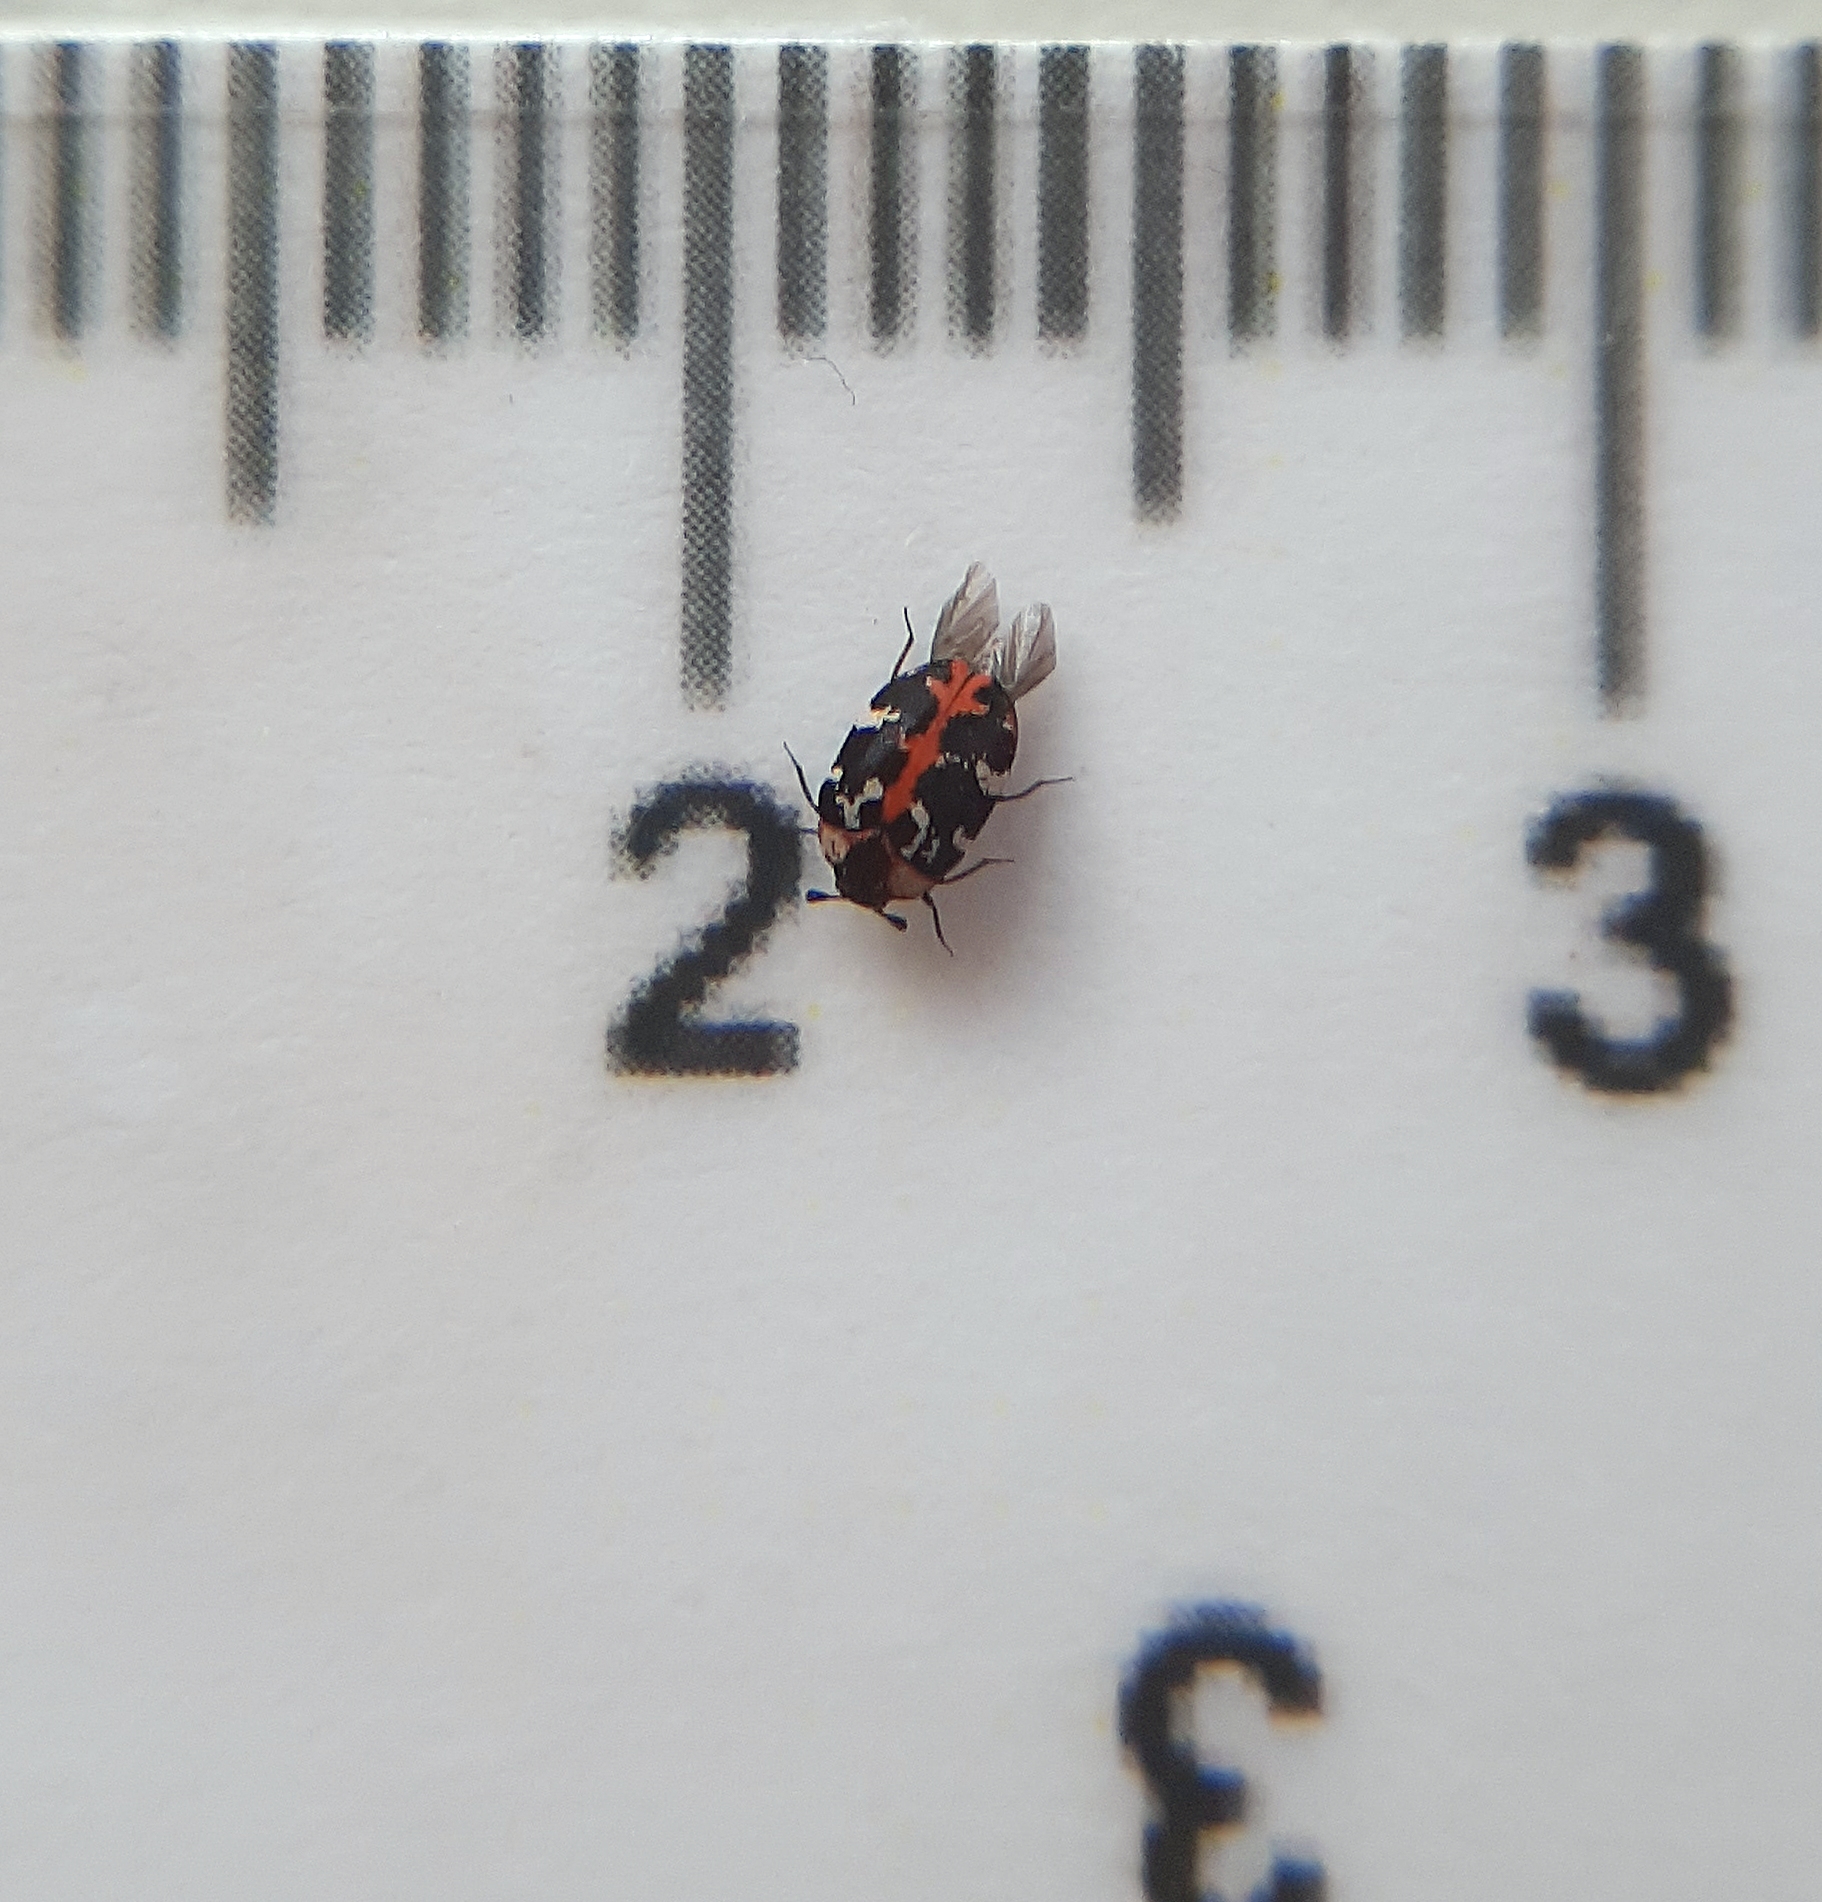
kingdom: Animalia
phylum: Arthropoda
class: Insecta
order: Coleoptera
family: Dermestidae
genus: Anthrenus
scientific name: Anthrenus scrophulariae
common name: Buffalo carpet beetle
